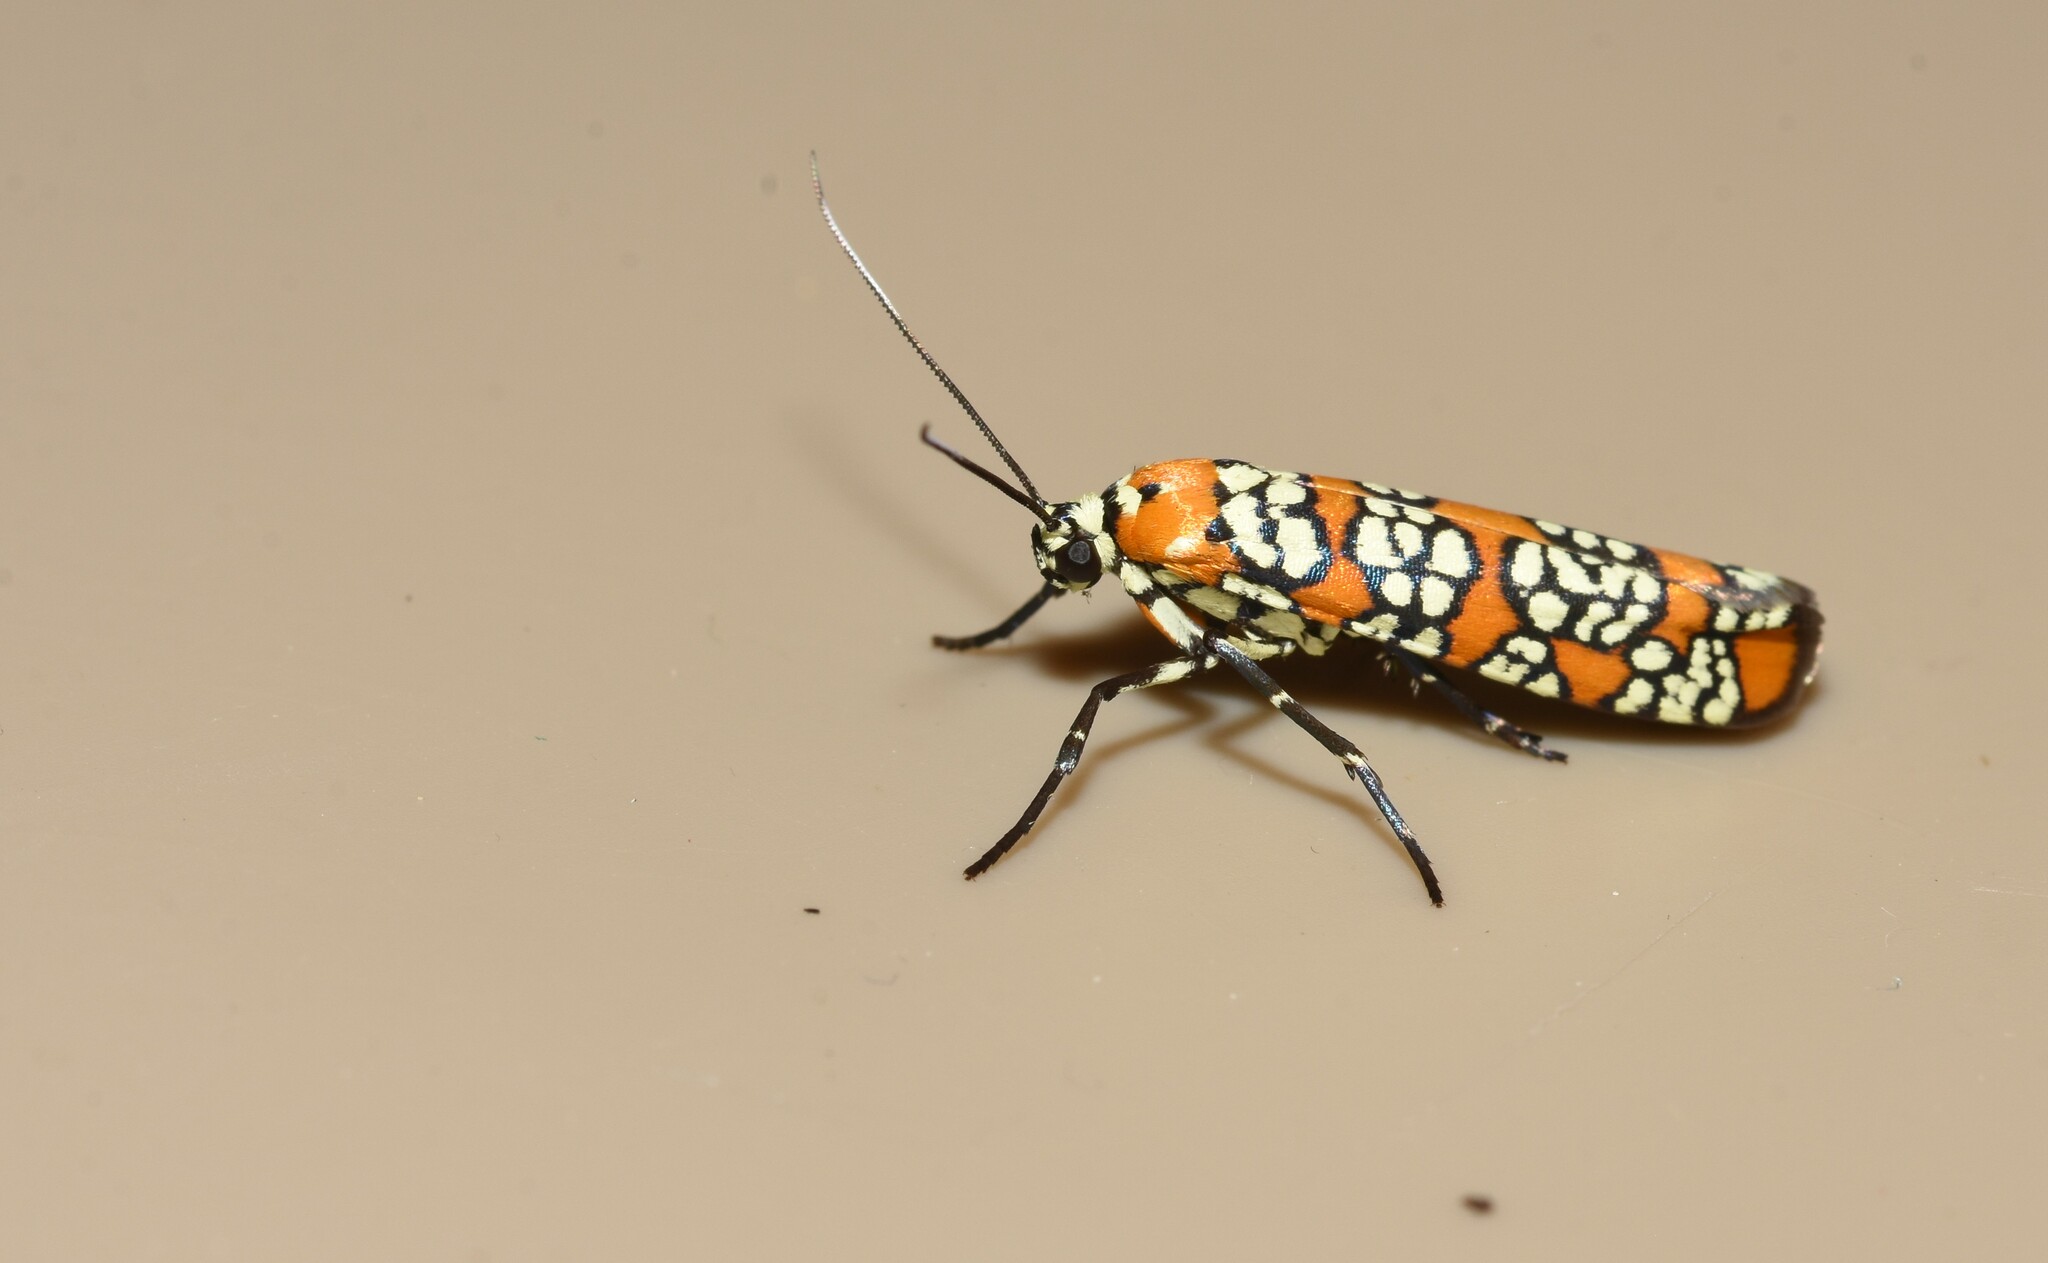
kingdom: Animalia
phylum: Arthropoda
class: Insecta
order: Lepidoptera
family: Attevidae
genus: Atteva
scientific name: Atteva punctella
